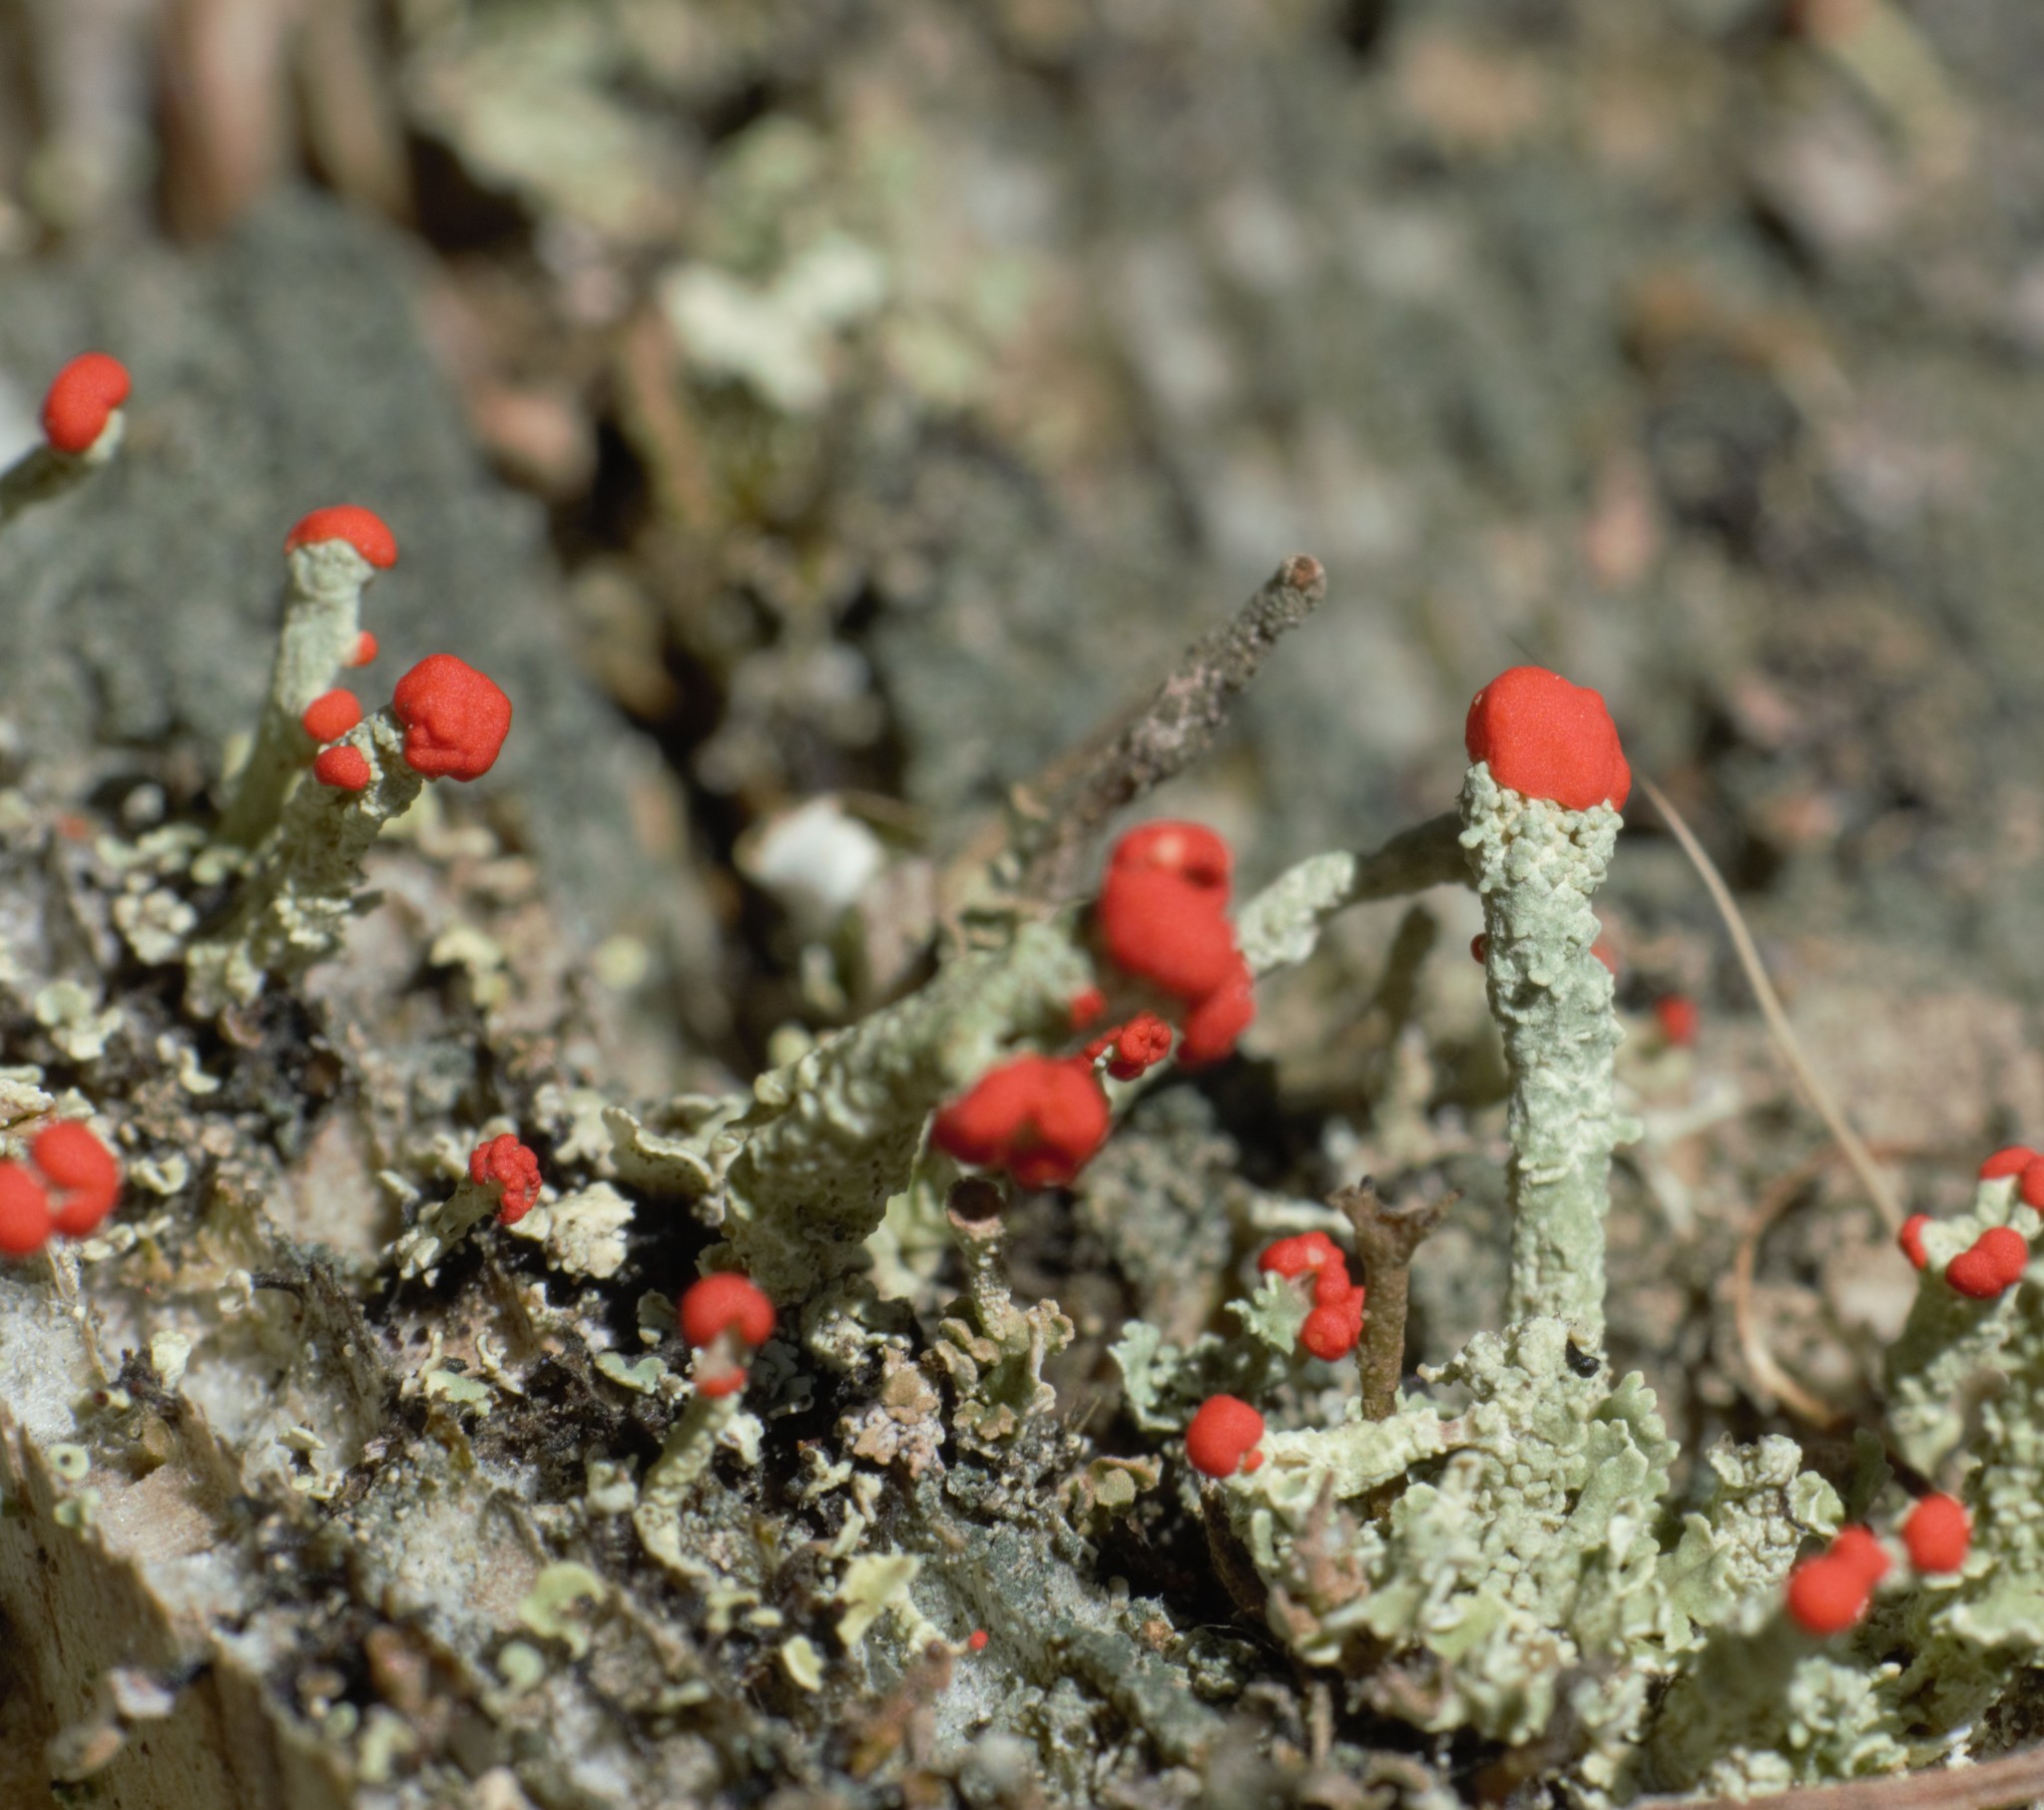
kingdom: Fungi
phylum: Ascomycota
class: Lecanoromycetes
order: Lecanorales
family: Cladoniaceae
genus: Cladonia
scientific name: Cladonia cristatella
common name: British soldier lichen
